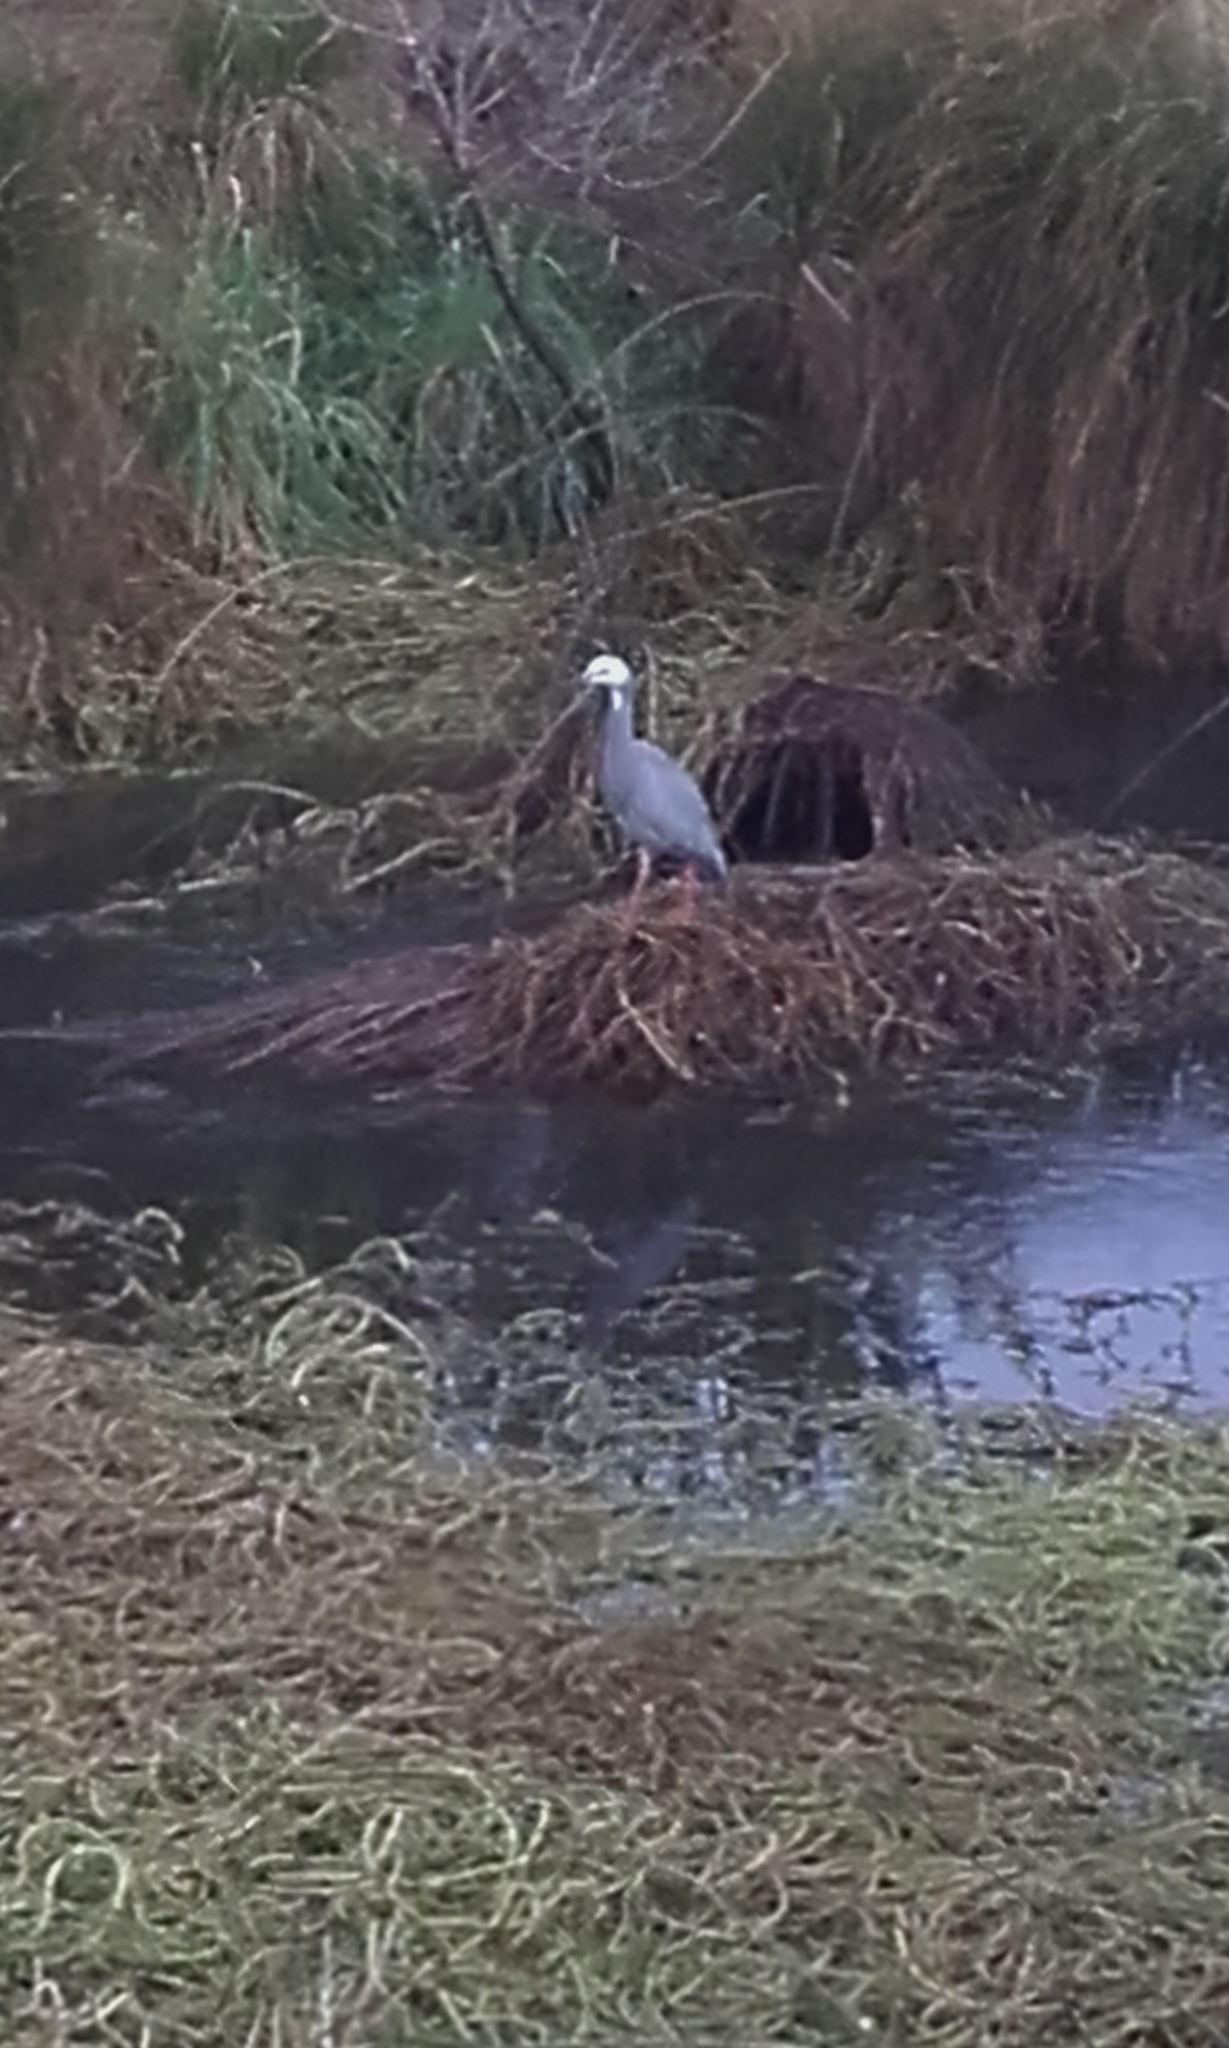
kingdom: Animalia
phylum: Chordata
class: Aves
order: Pelecaniformes
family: Ardeidae
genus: Egretta
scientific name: Egretta novaehollandiae
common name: White-faced heron
